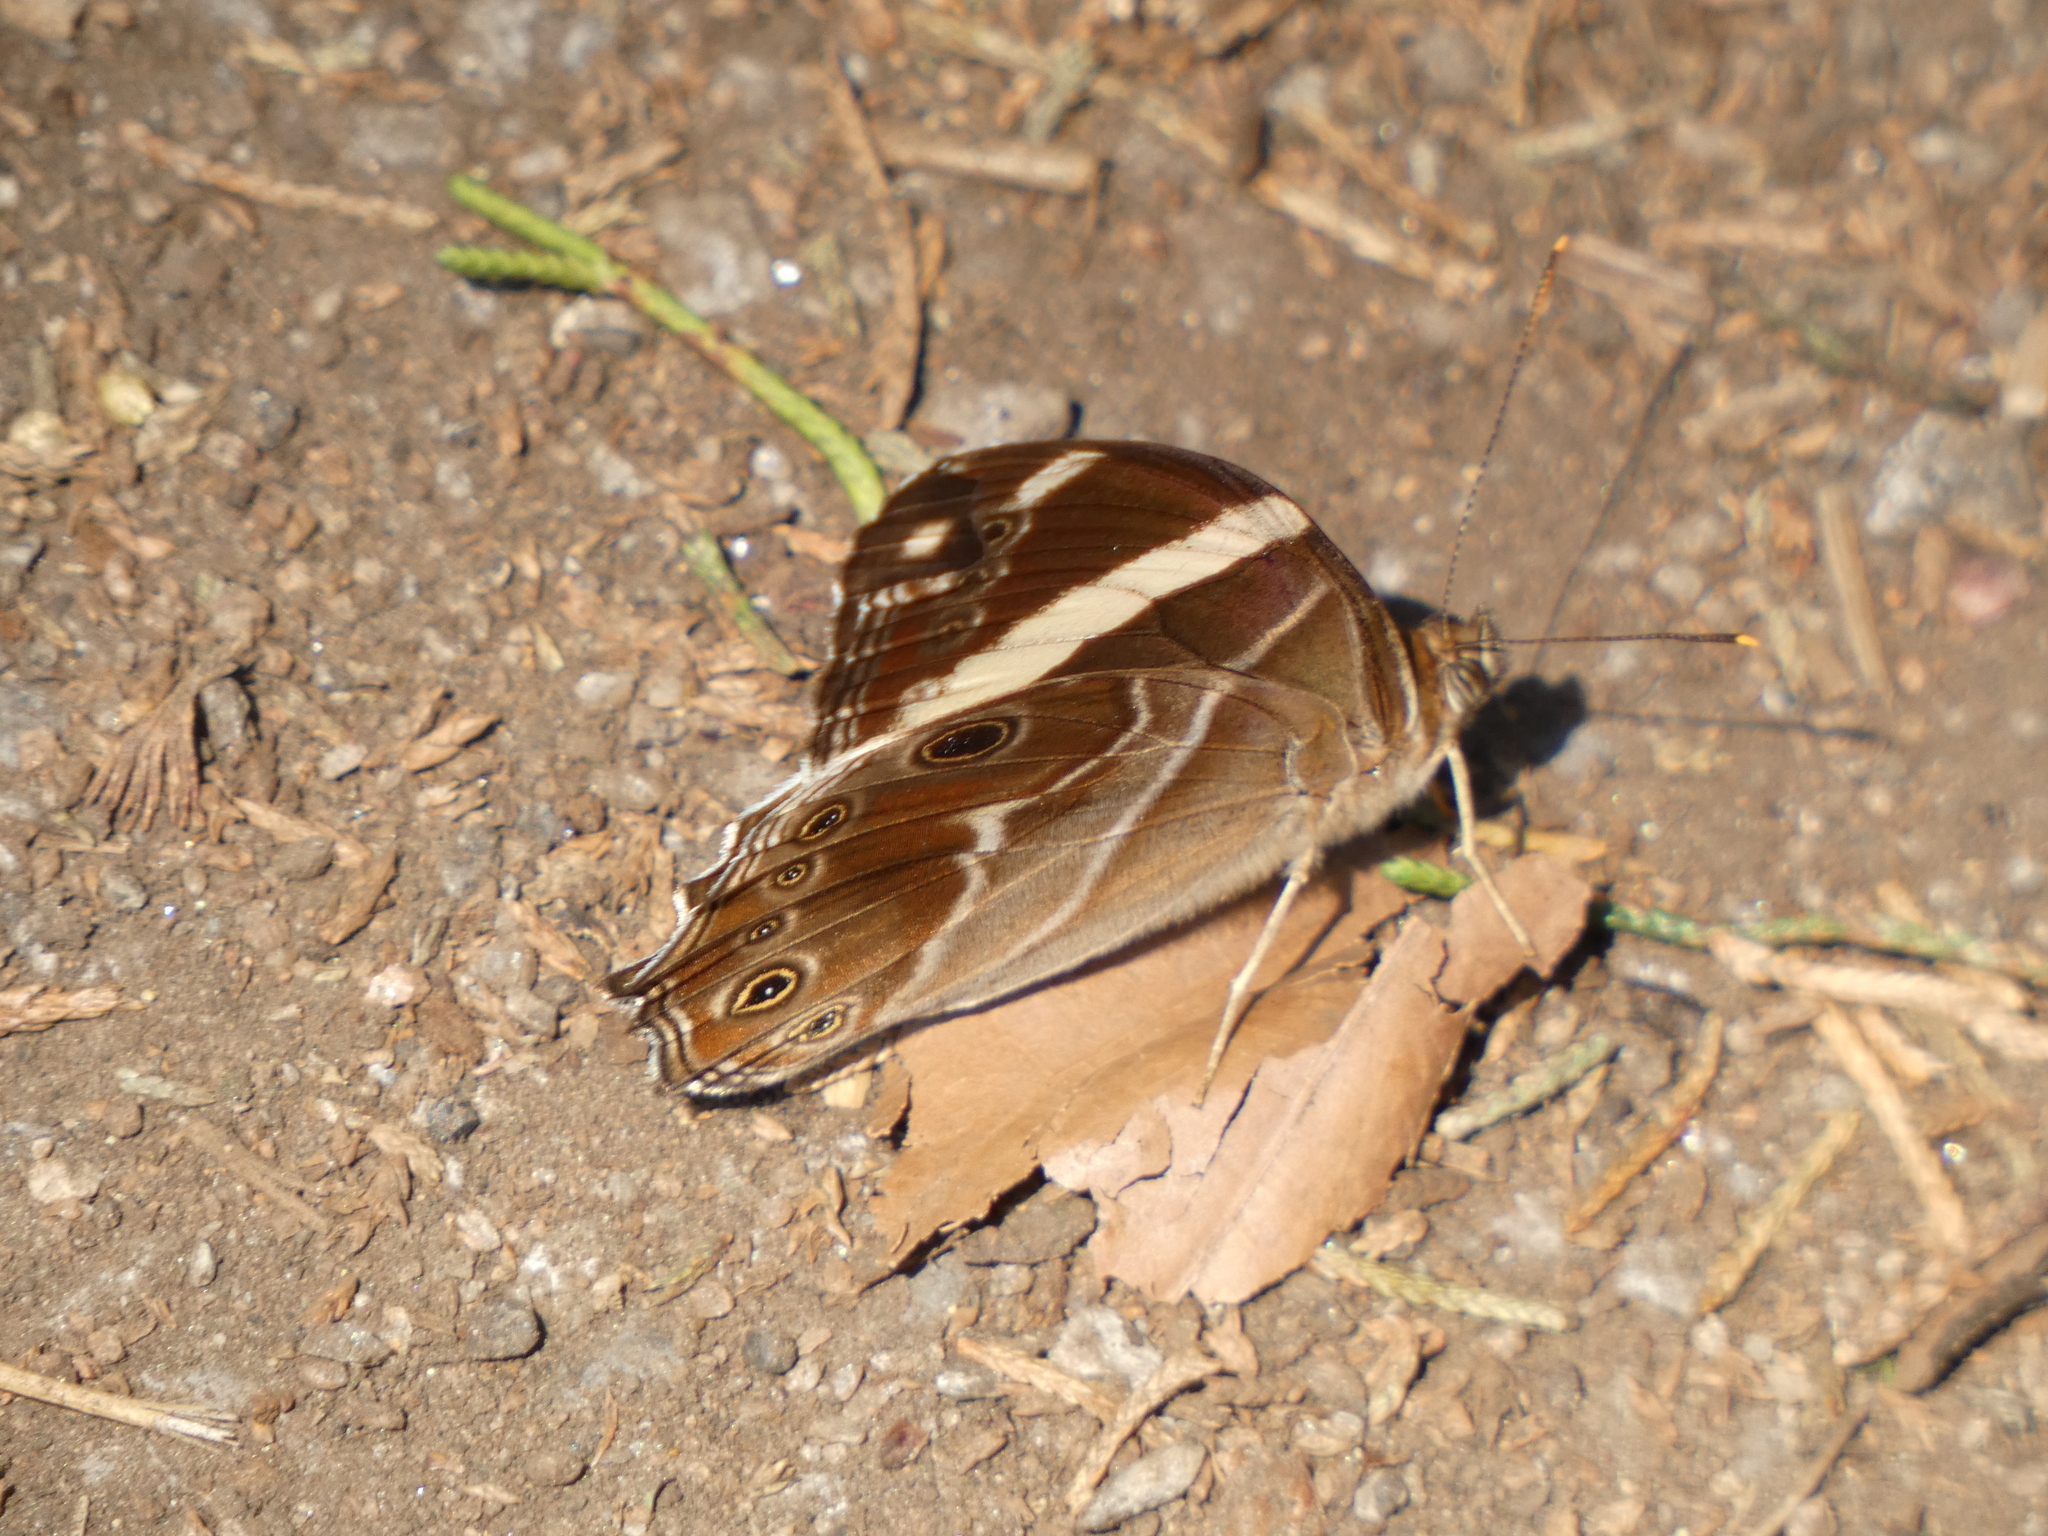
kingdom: Animalia
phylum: Arthropoda
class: Insecta
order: Lepidoptera
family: Nymphalidae
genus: Lethe
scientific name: Lethe confusa
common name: Banded treebrown
